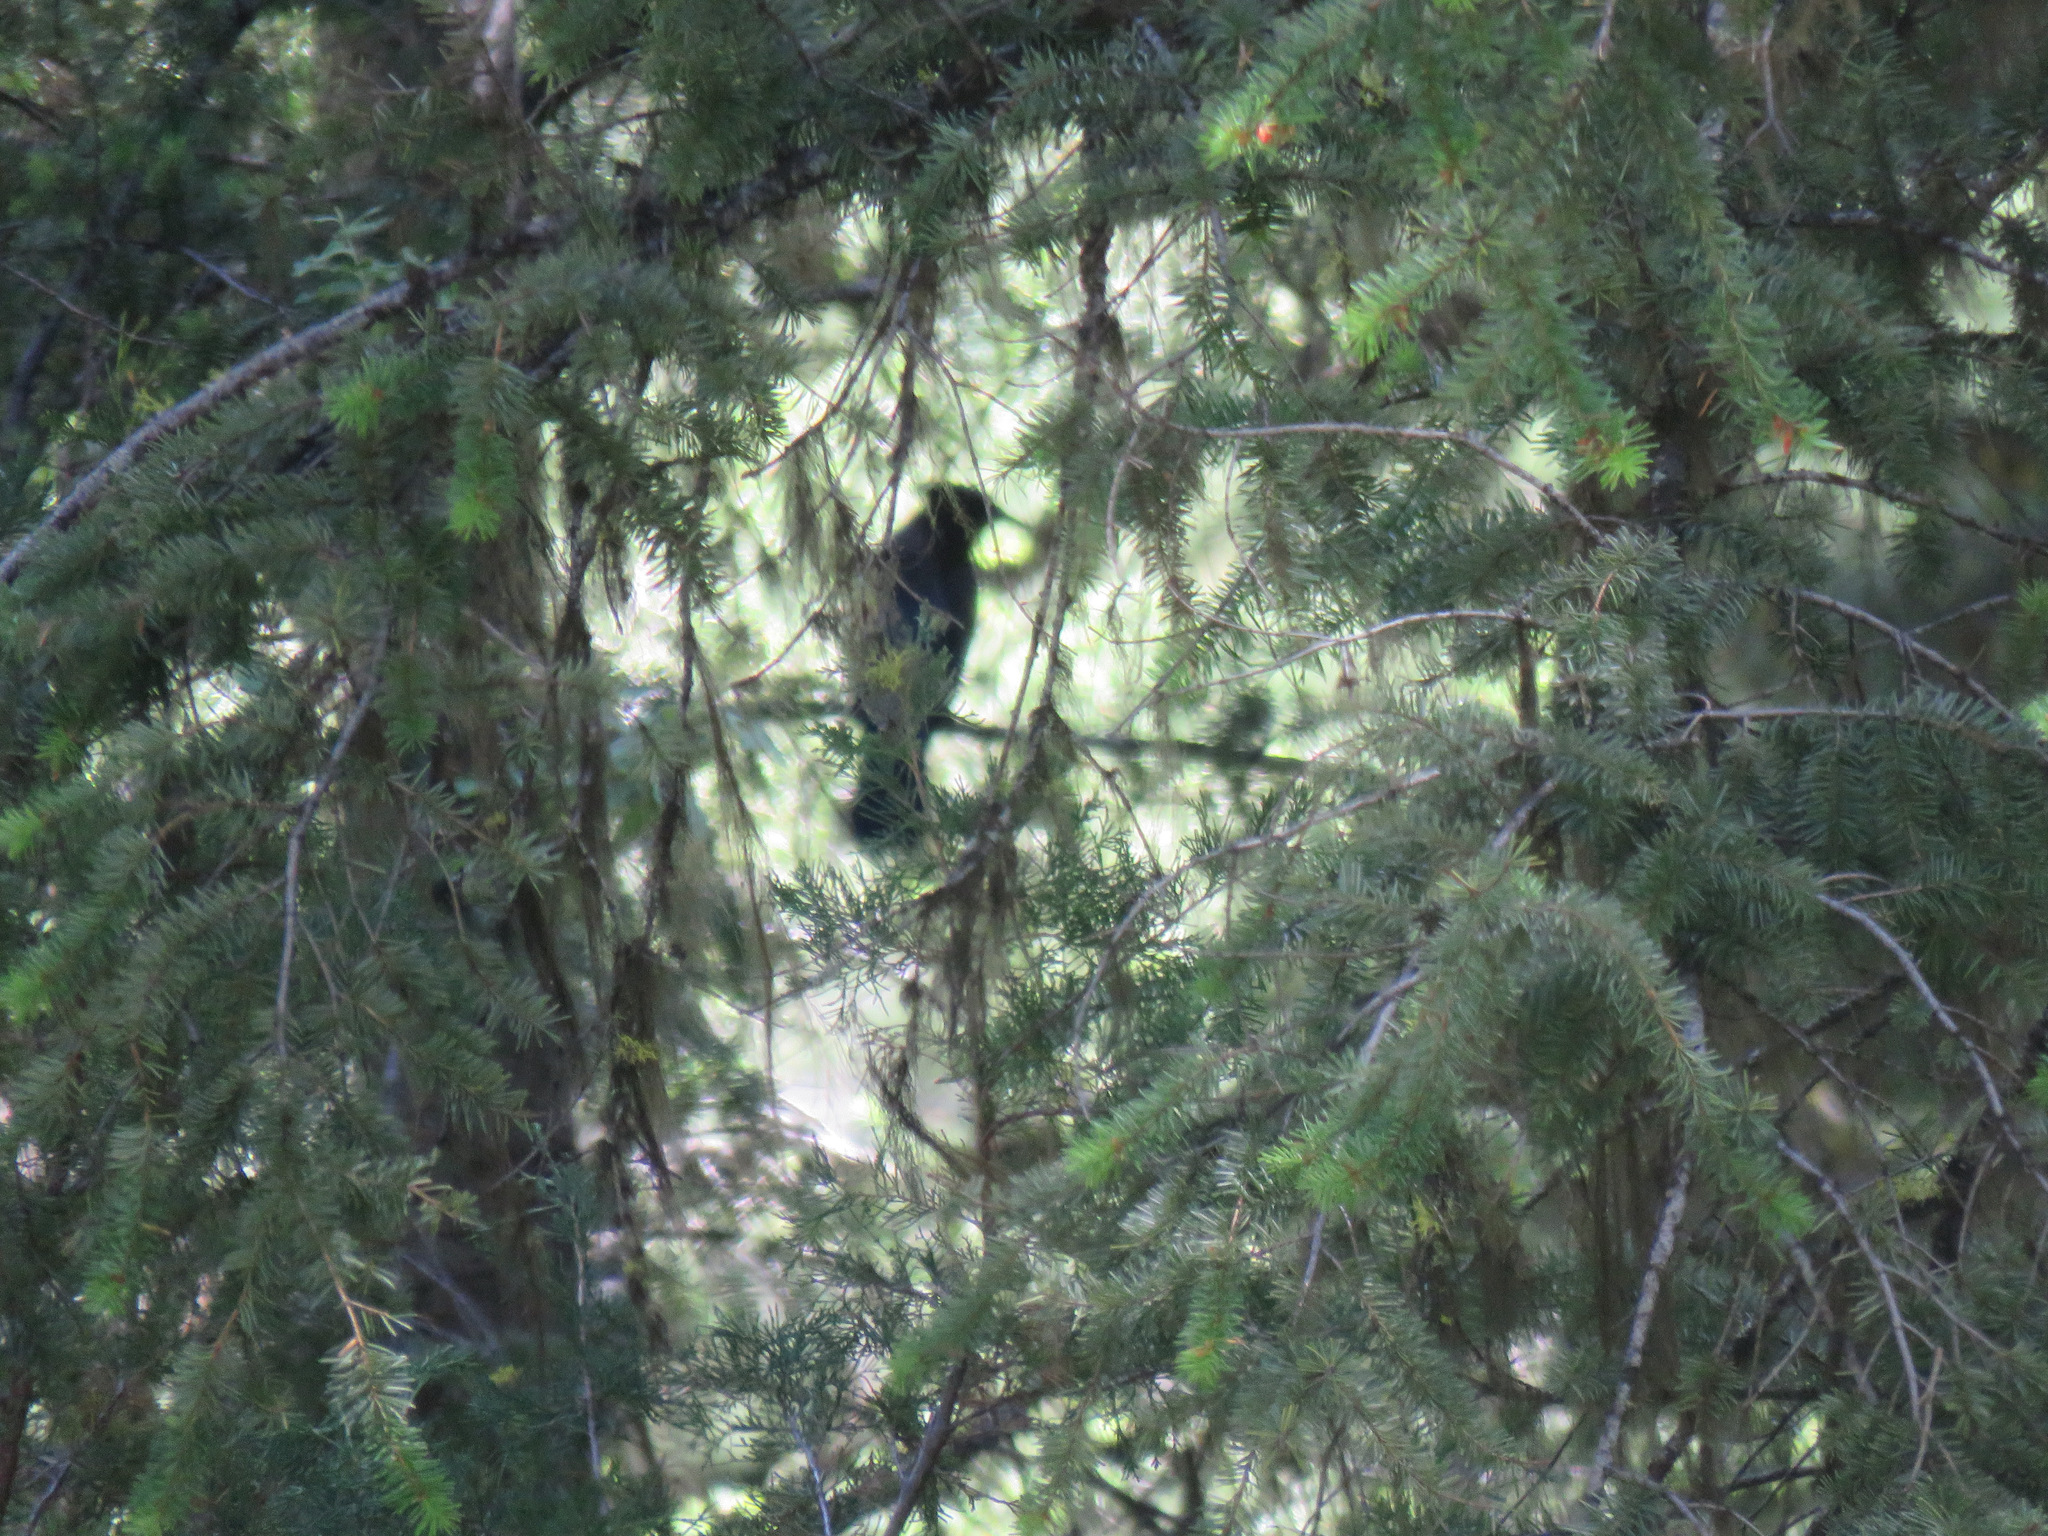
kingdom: Animalia
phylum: Chordata
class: Aves
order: Passeriformes
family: Corvidae
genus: Cyanocitta
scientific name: Cyanocitta stelleri
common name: Steller's jay
